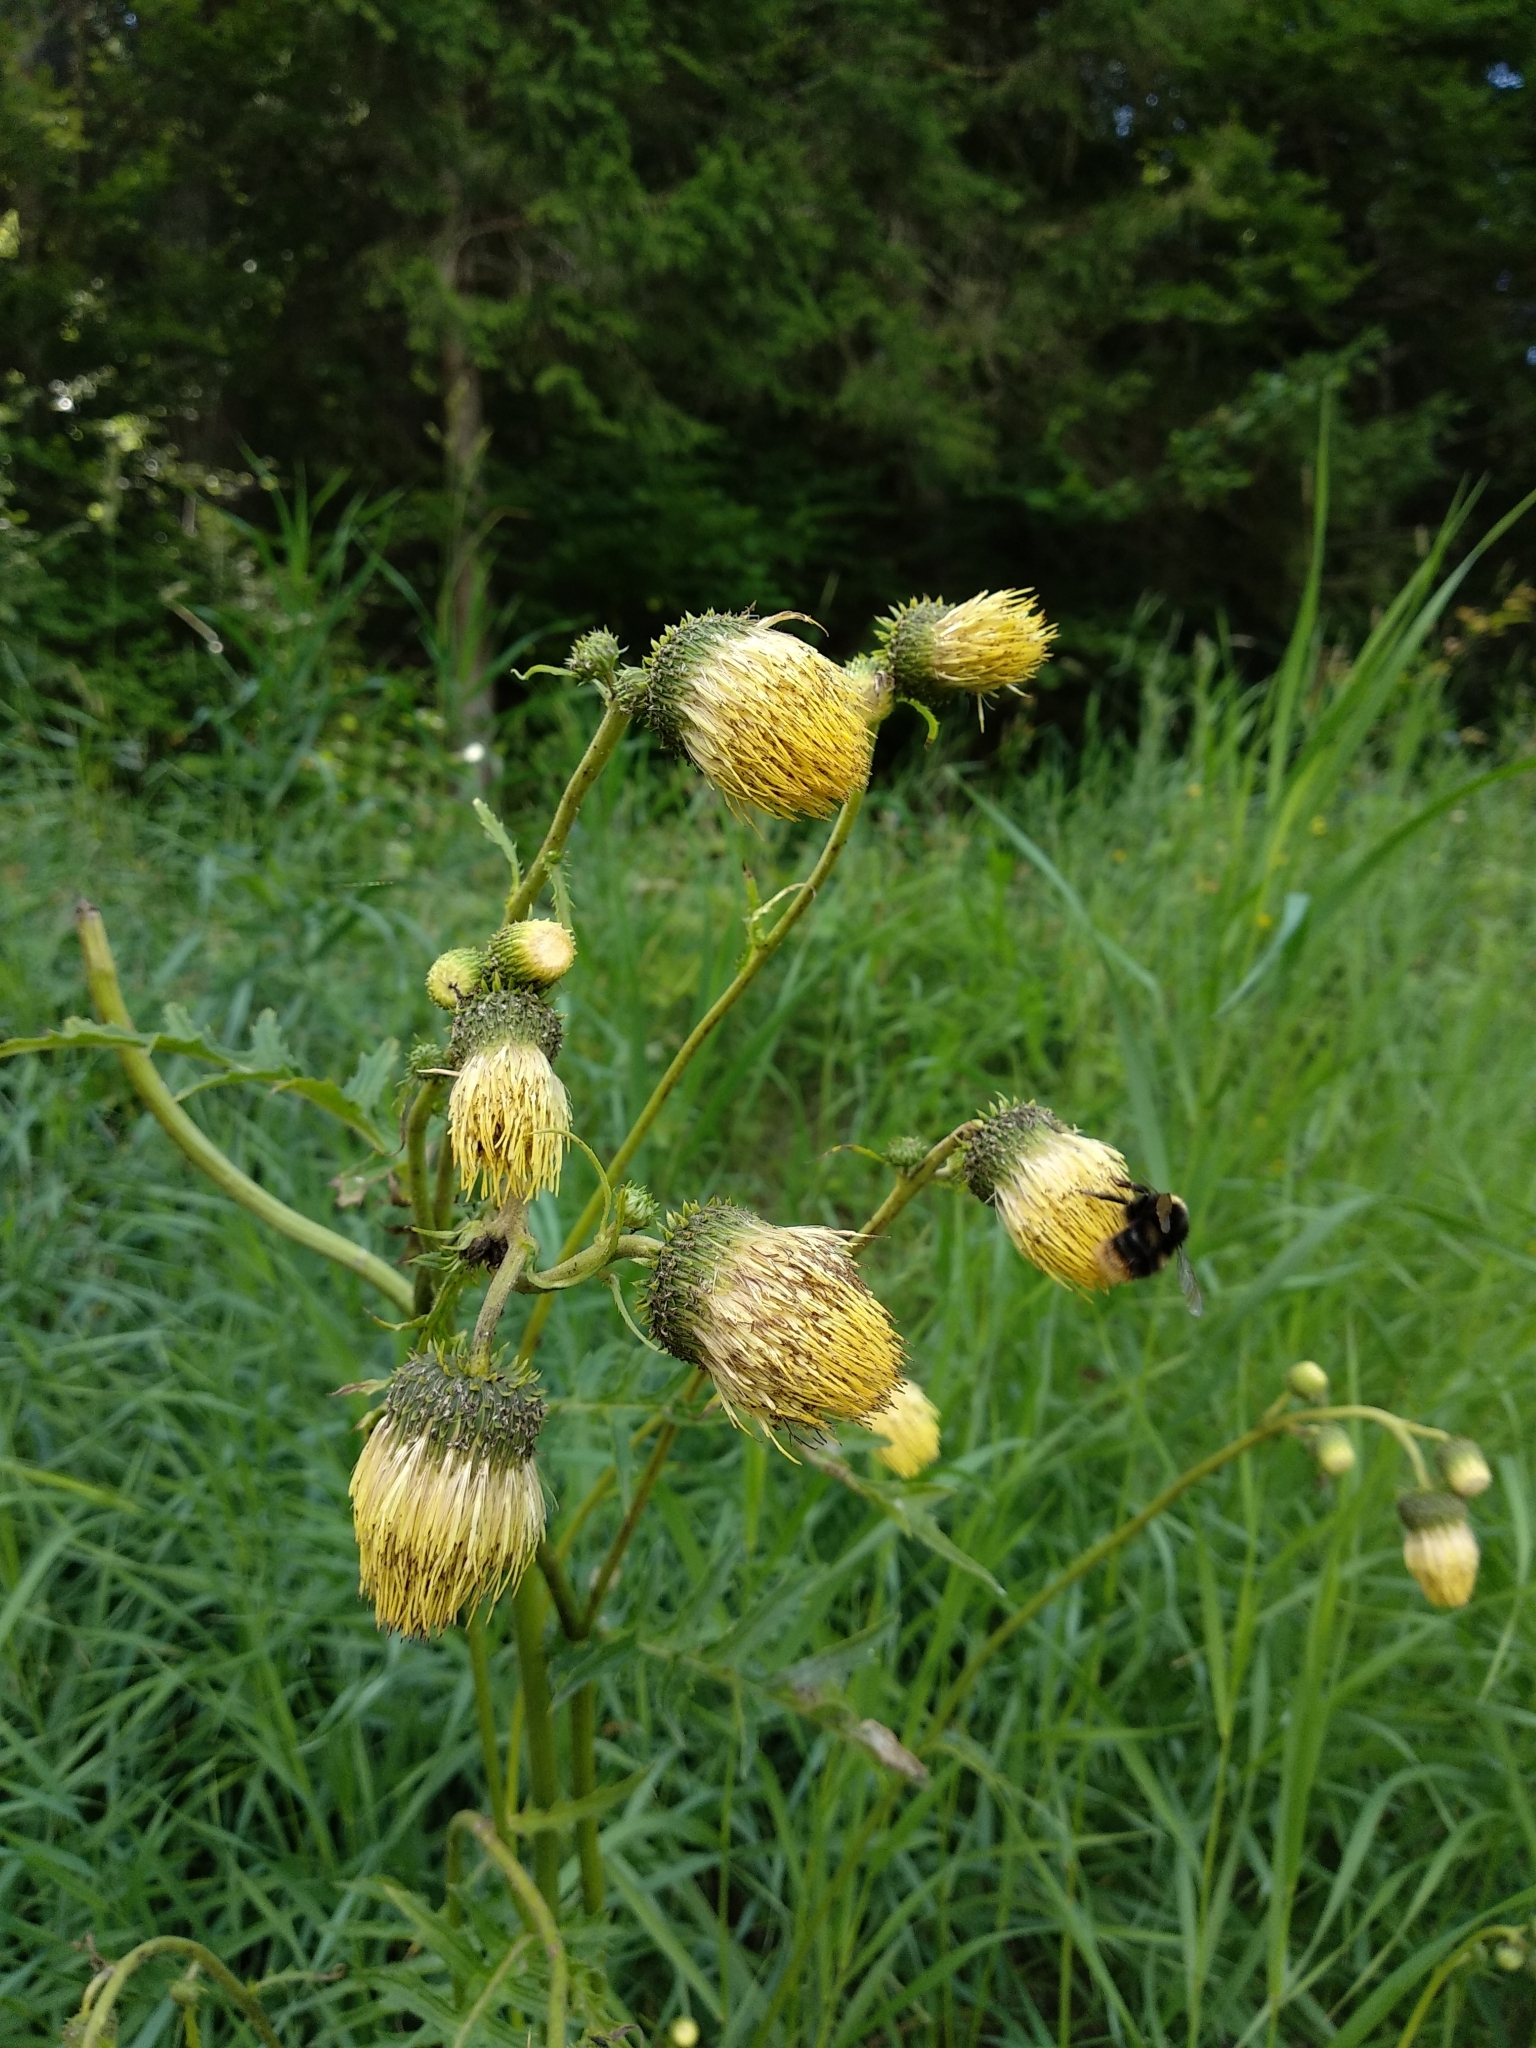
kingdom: Plantae
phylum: Tracheophyta
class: Magnoliopsida
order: Asterales
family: Asteraceae
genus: Cirsium
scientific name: Cirsium erisithales
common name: Yellow thistle
